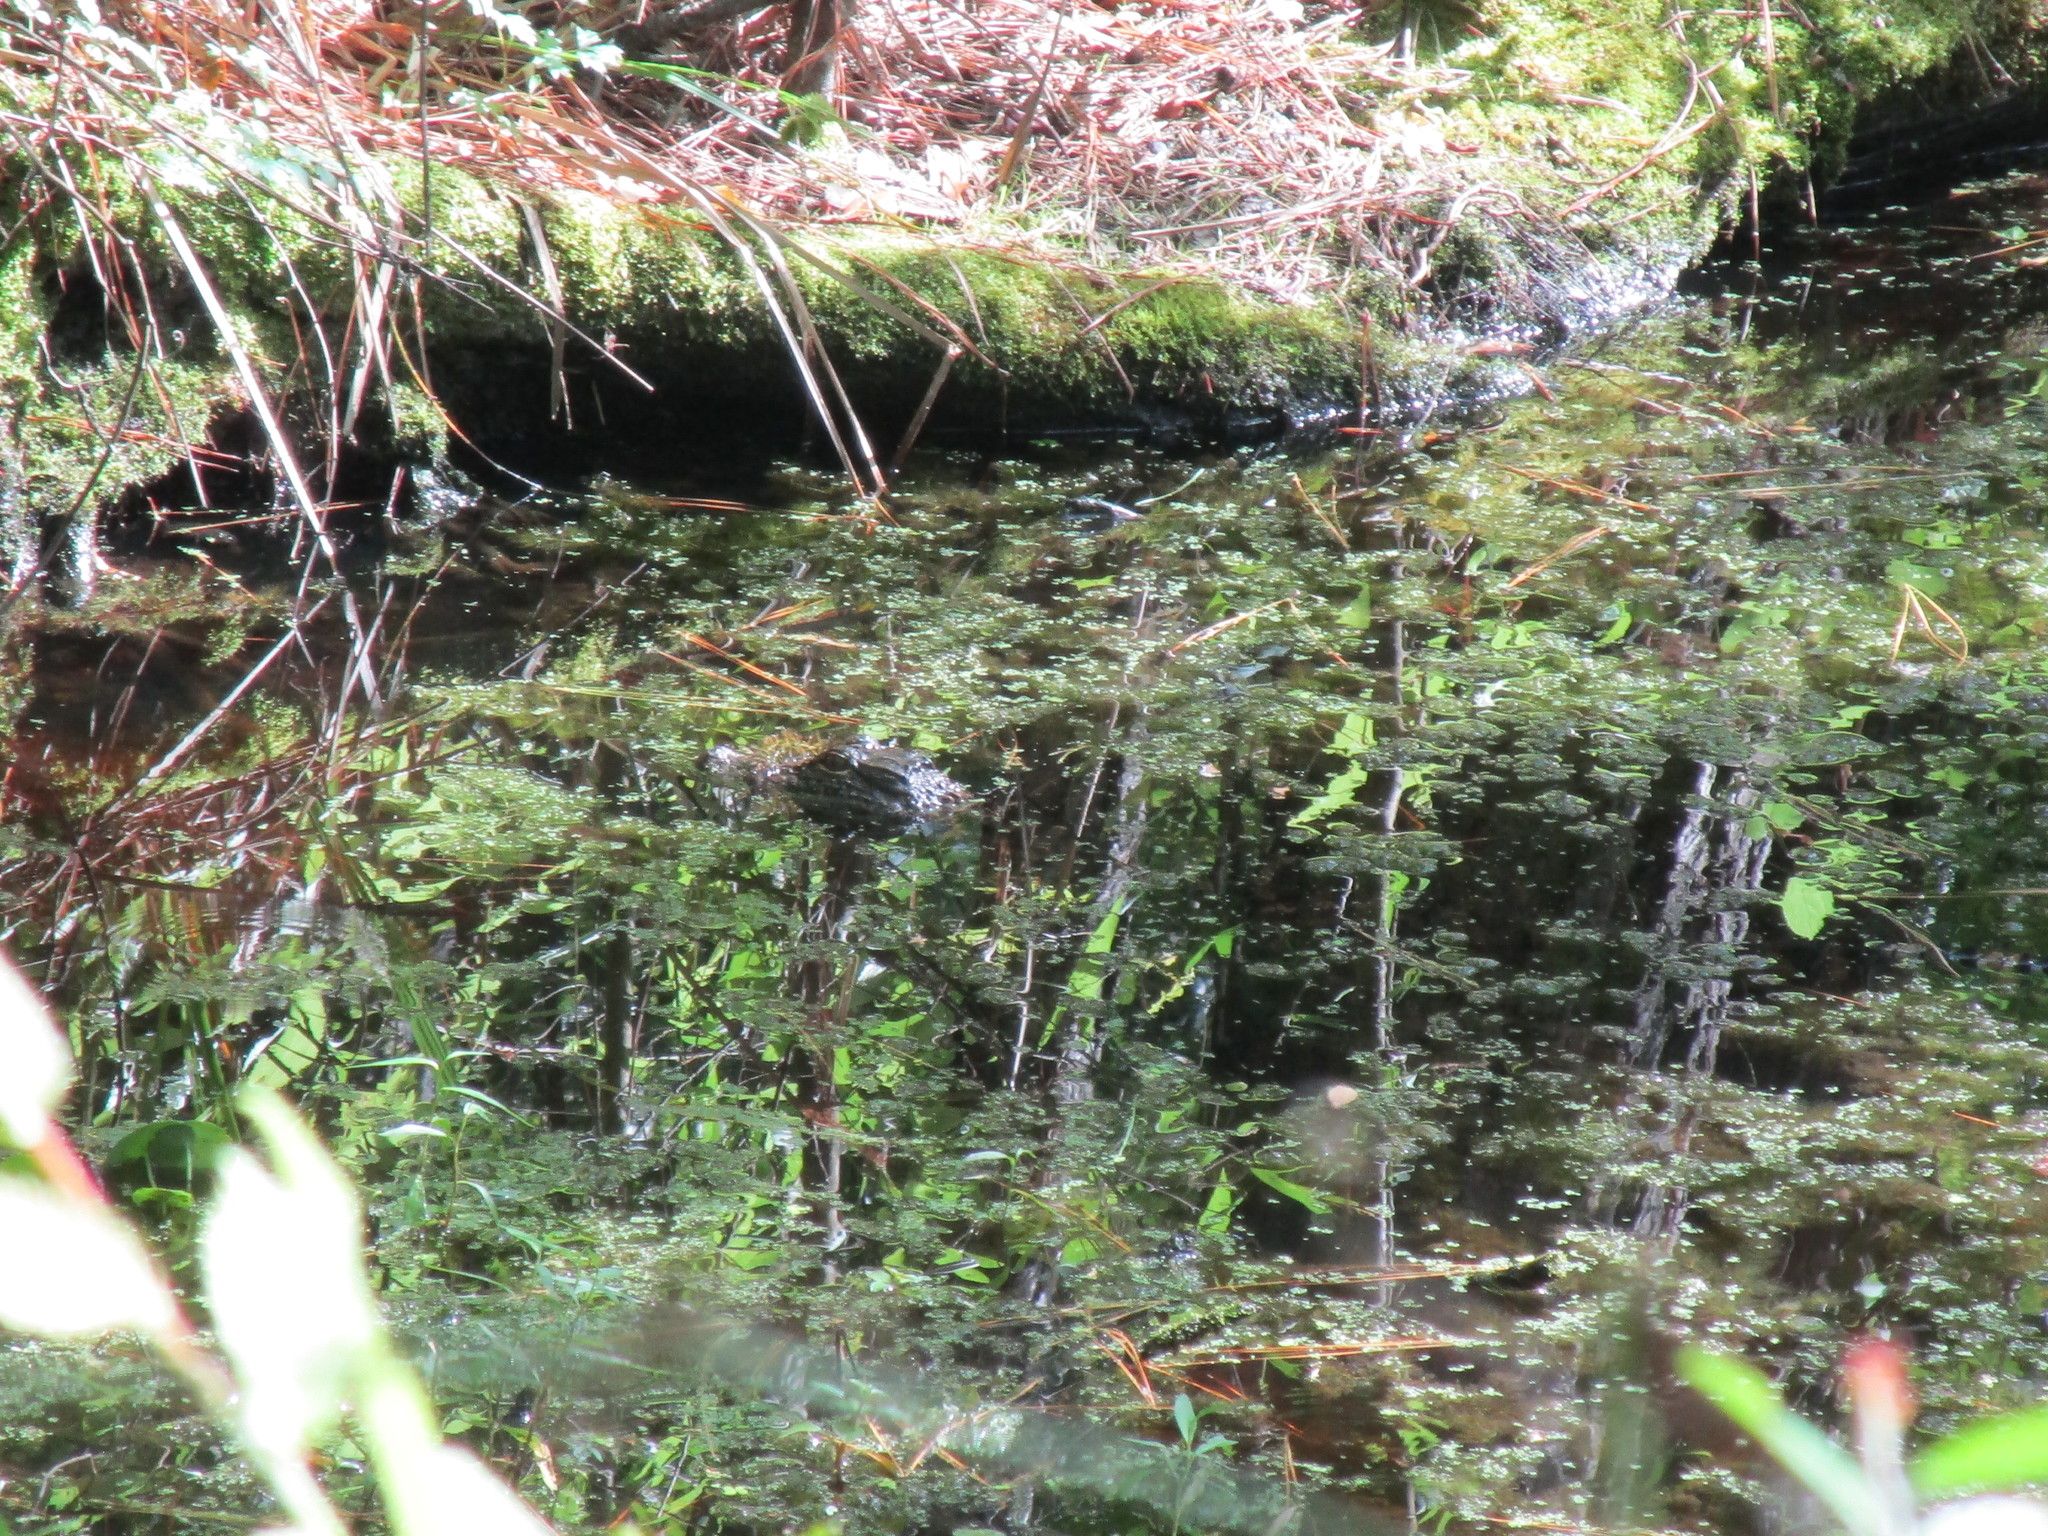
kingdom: Animalia
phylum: Chordata
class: Crocodylia
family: Alligatoridae
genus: Alligator
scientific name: Alligator mississippiensis
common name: American alligator
